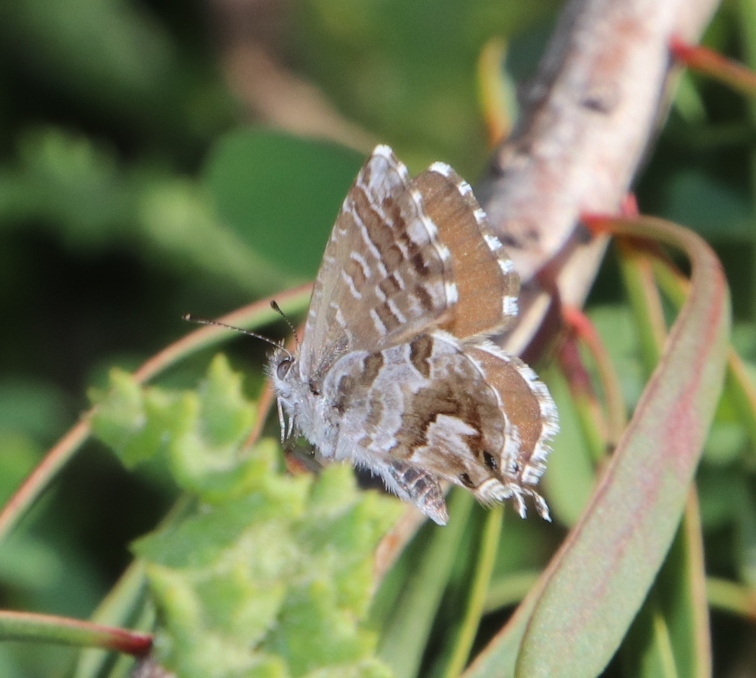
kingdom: Animalia
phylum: Arthropoda
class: Insecta
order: Lepidoptera
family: Lycaenidae
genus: Cacyreus
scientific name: Cacyreus marshalli
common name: Geranium bronze
